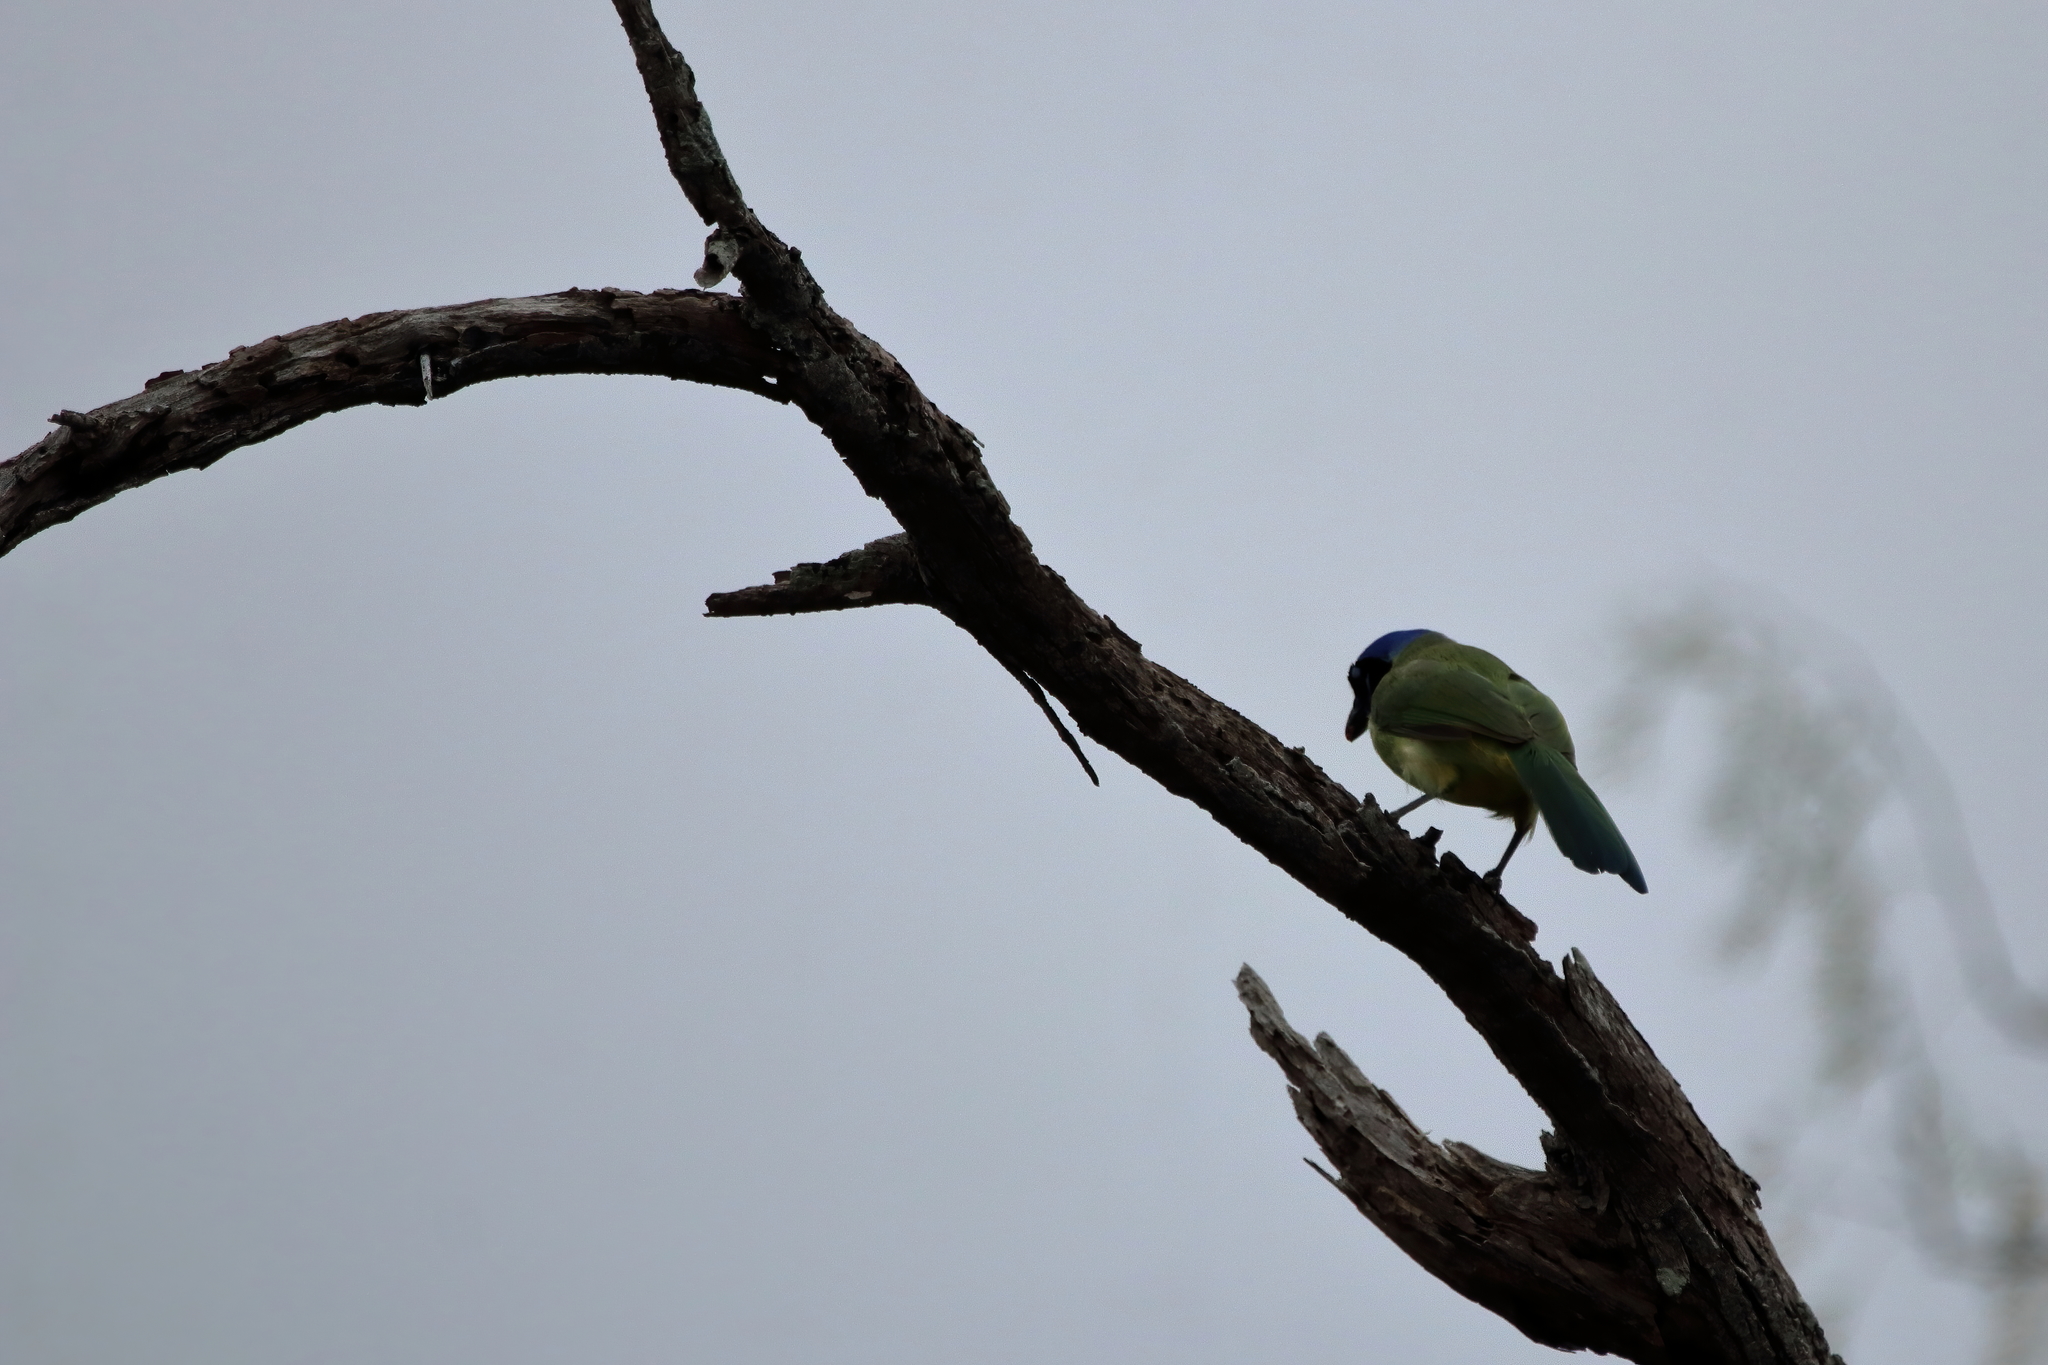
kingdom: Animalia
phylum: Chordata
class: Aves
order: Passeriformes
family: Corvidae
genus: Cyanocorax
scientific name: Cyanocorax yncas
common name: Green jay
